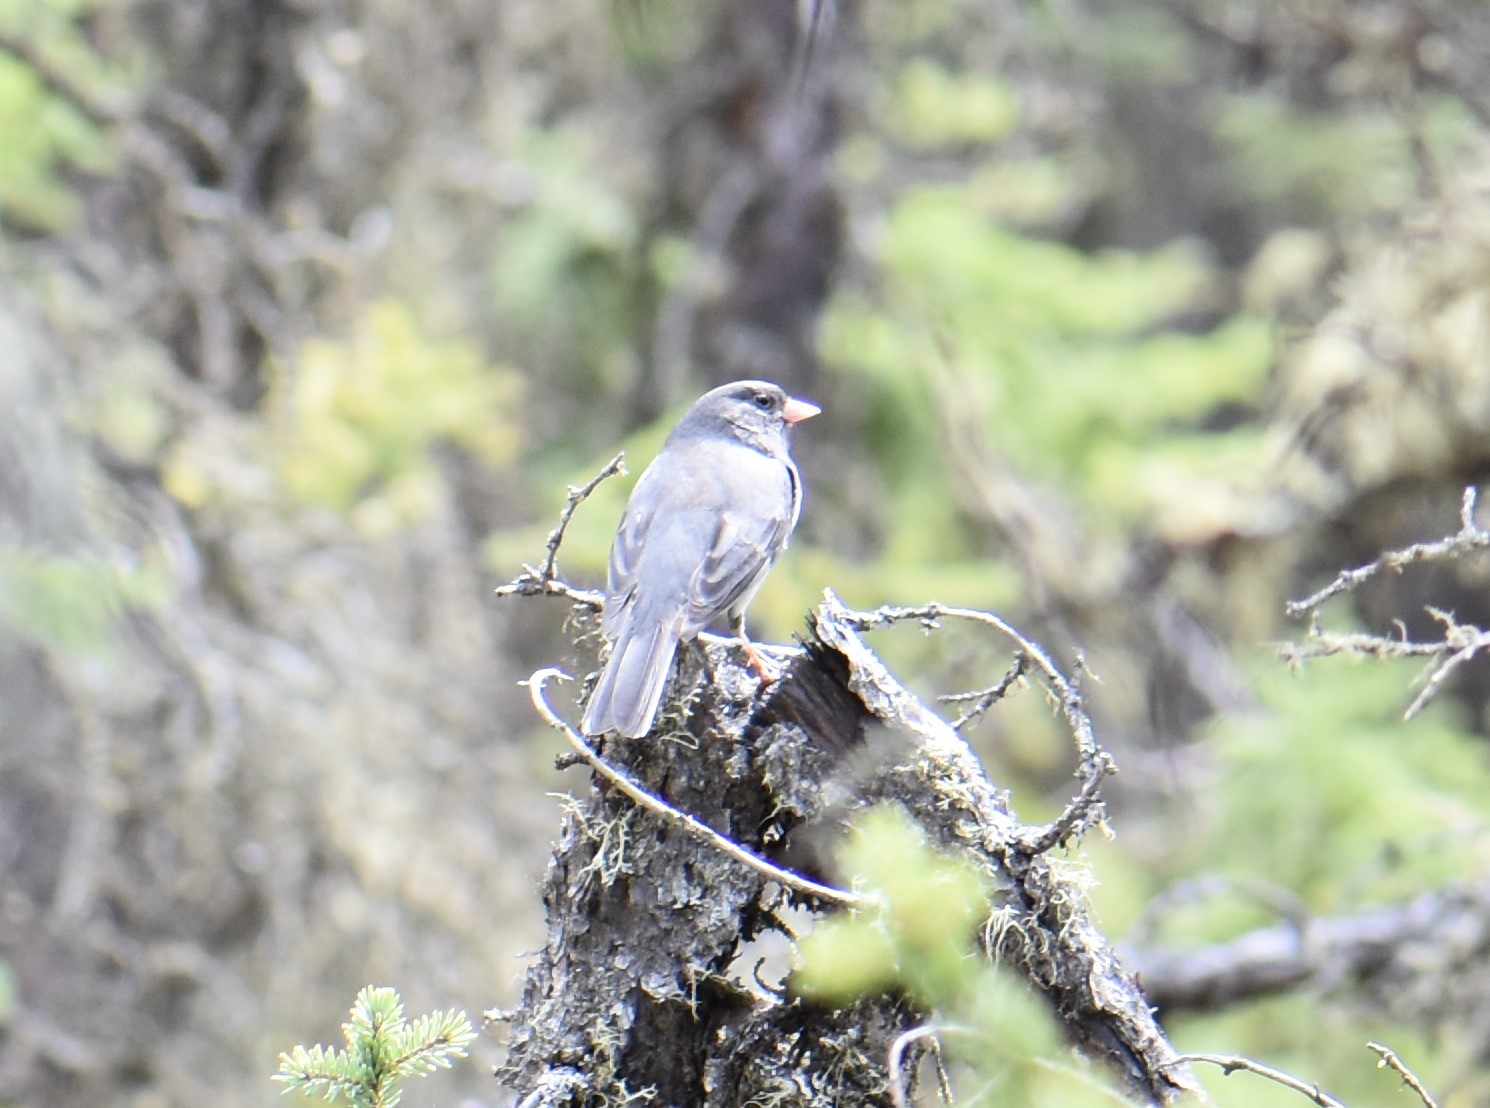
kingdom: Animalia
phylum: Chordata
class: Aves
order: Passeriformes
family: Passerellidae
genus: Junco
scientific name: Junco hyemalis
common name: Dark-eyed junco
